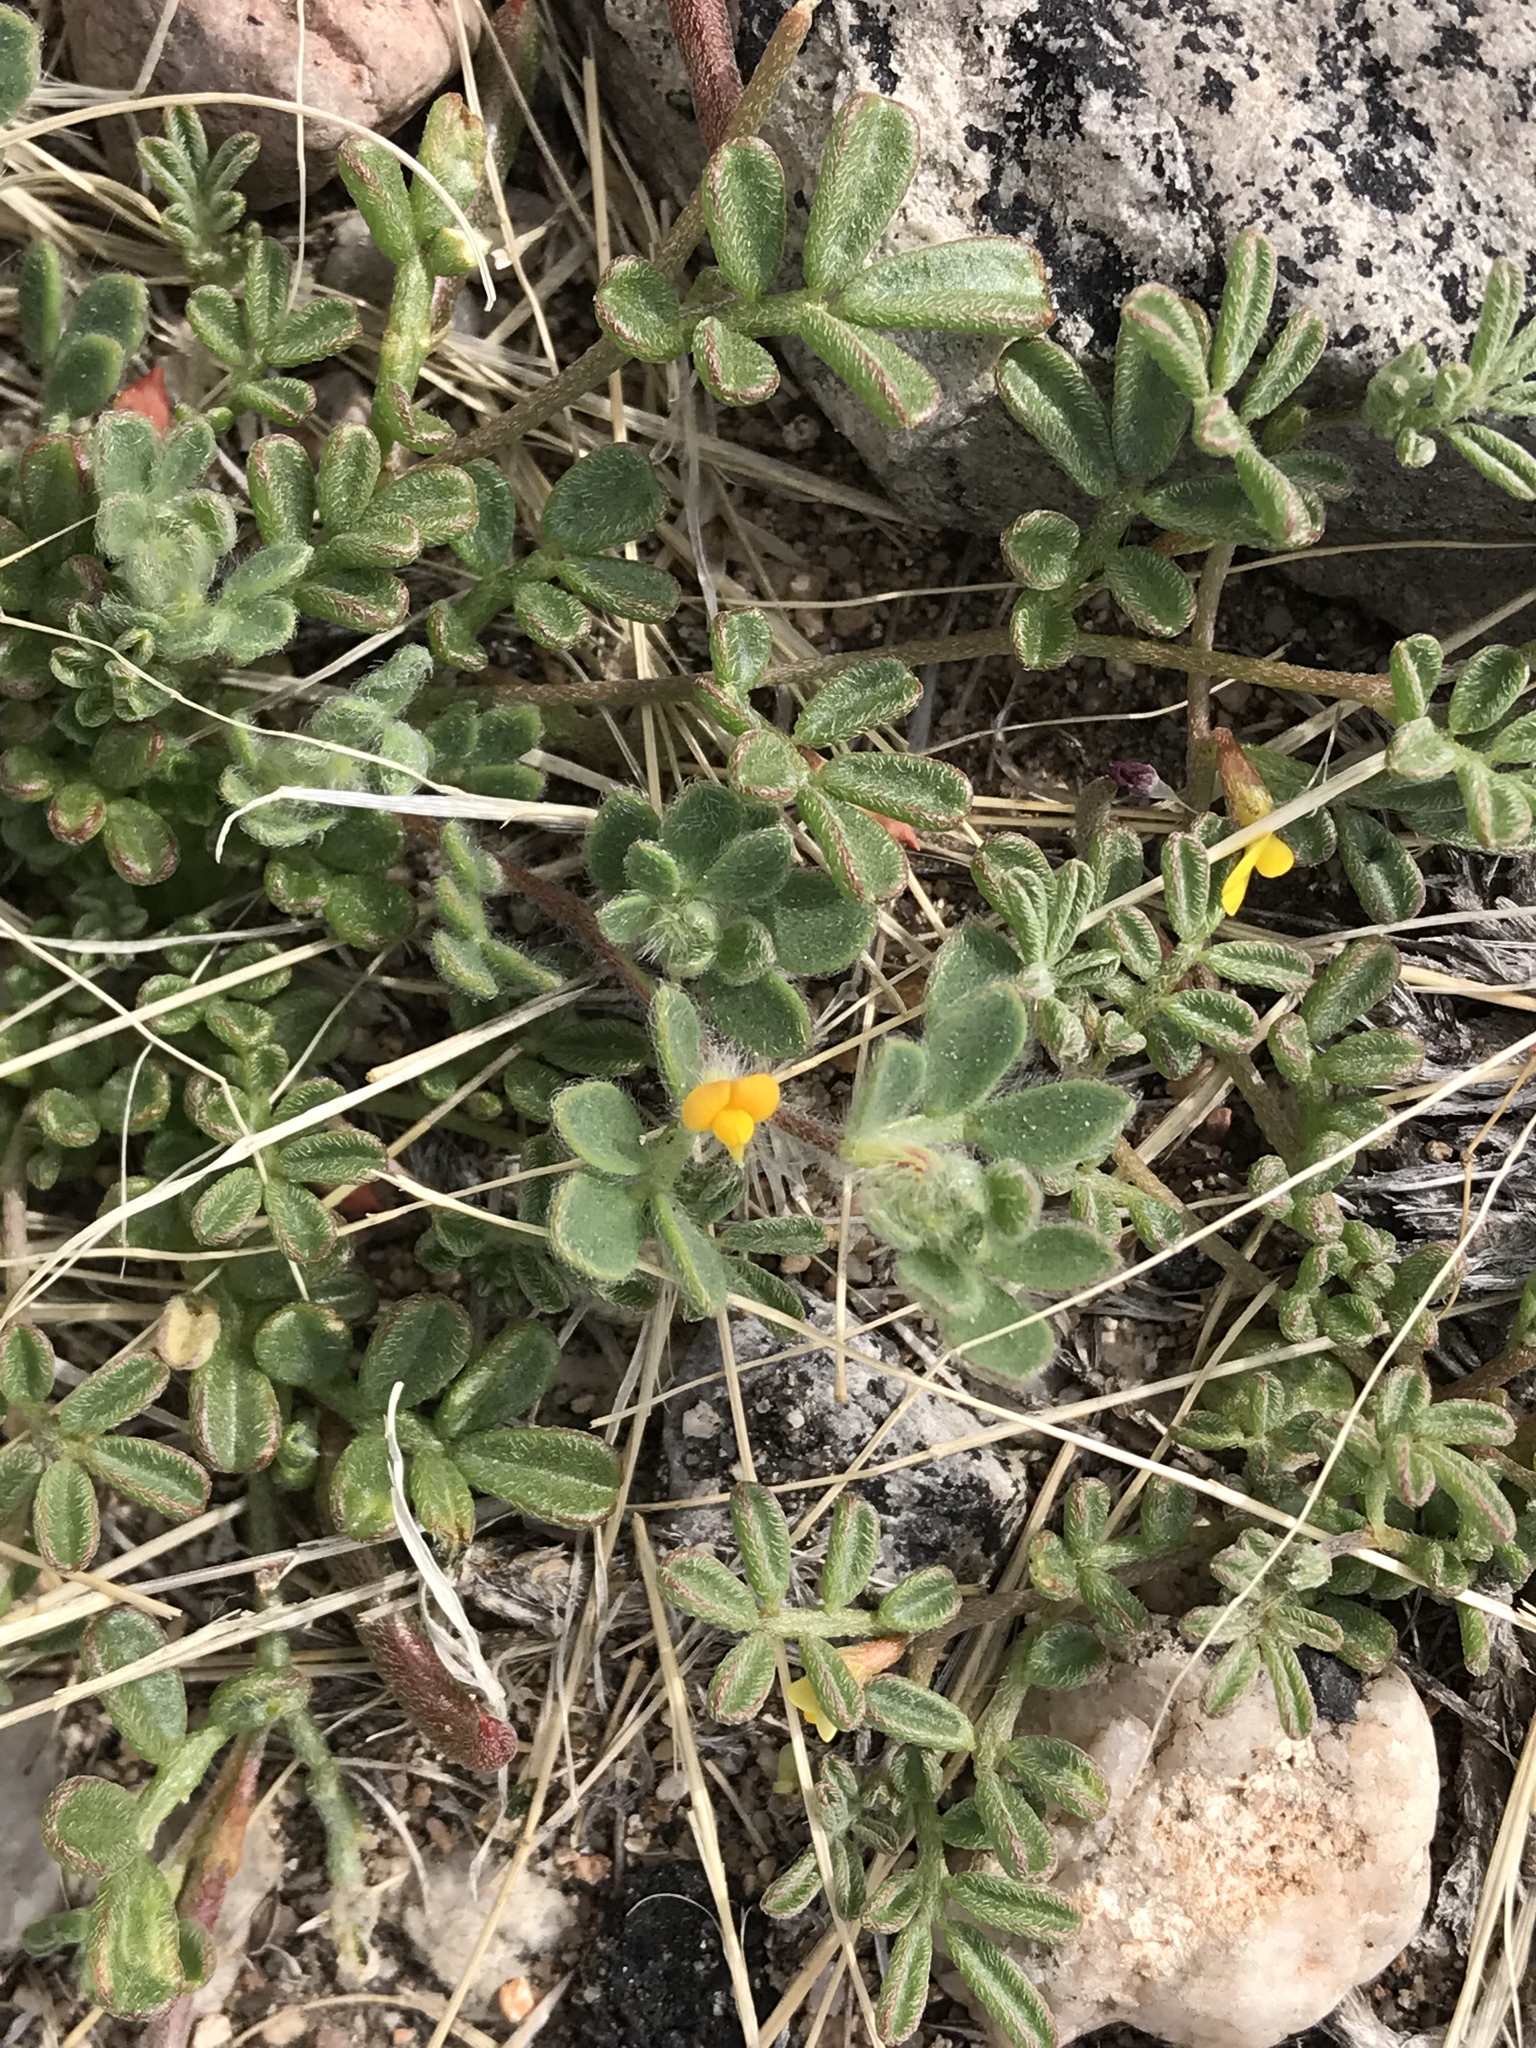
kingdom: Plantae
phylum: Tracheophyta
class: Magnoliopsida
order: Fabales
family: Fabaceae
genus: Acmispon
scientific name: Acmispon brachycarpus
